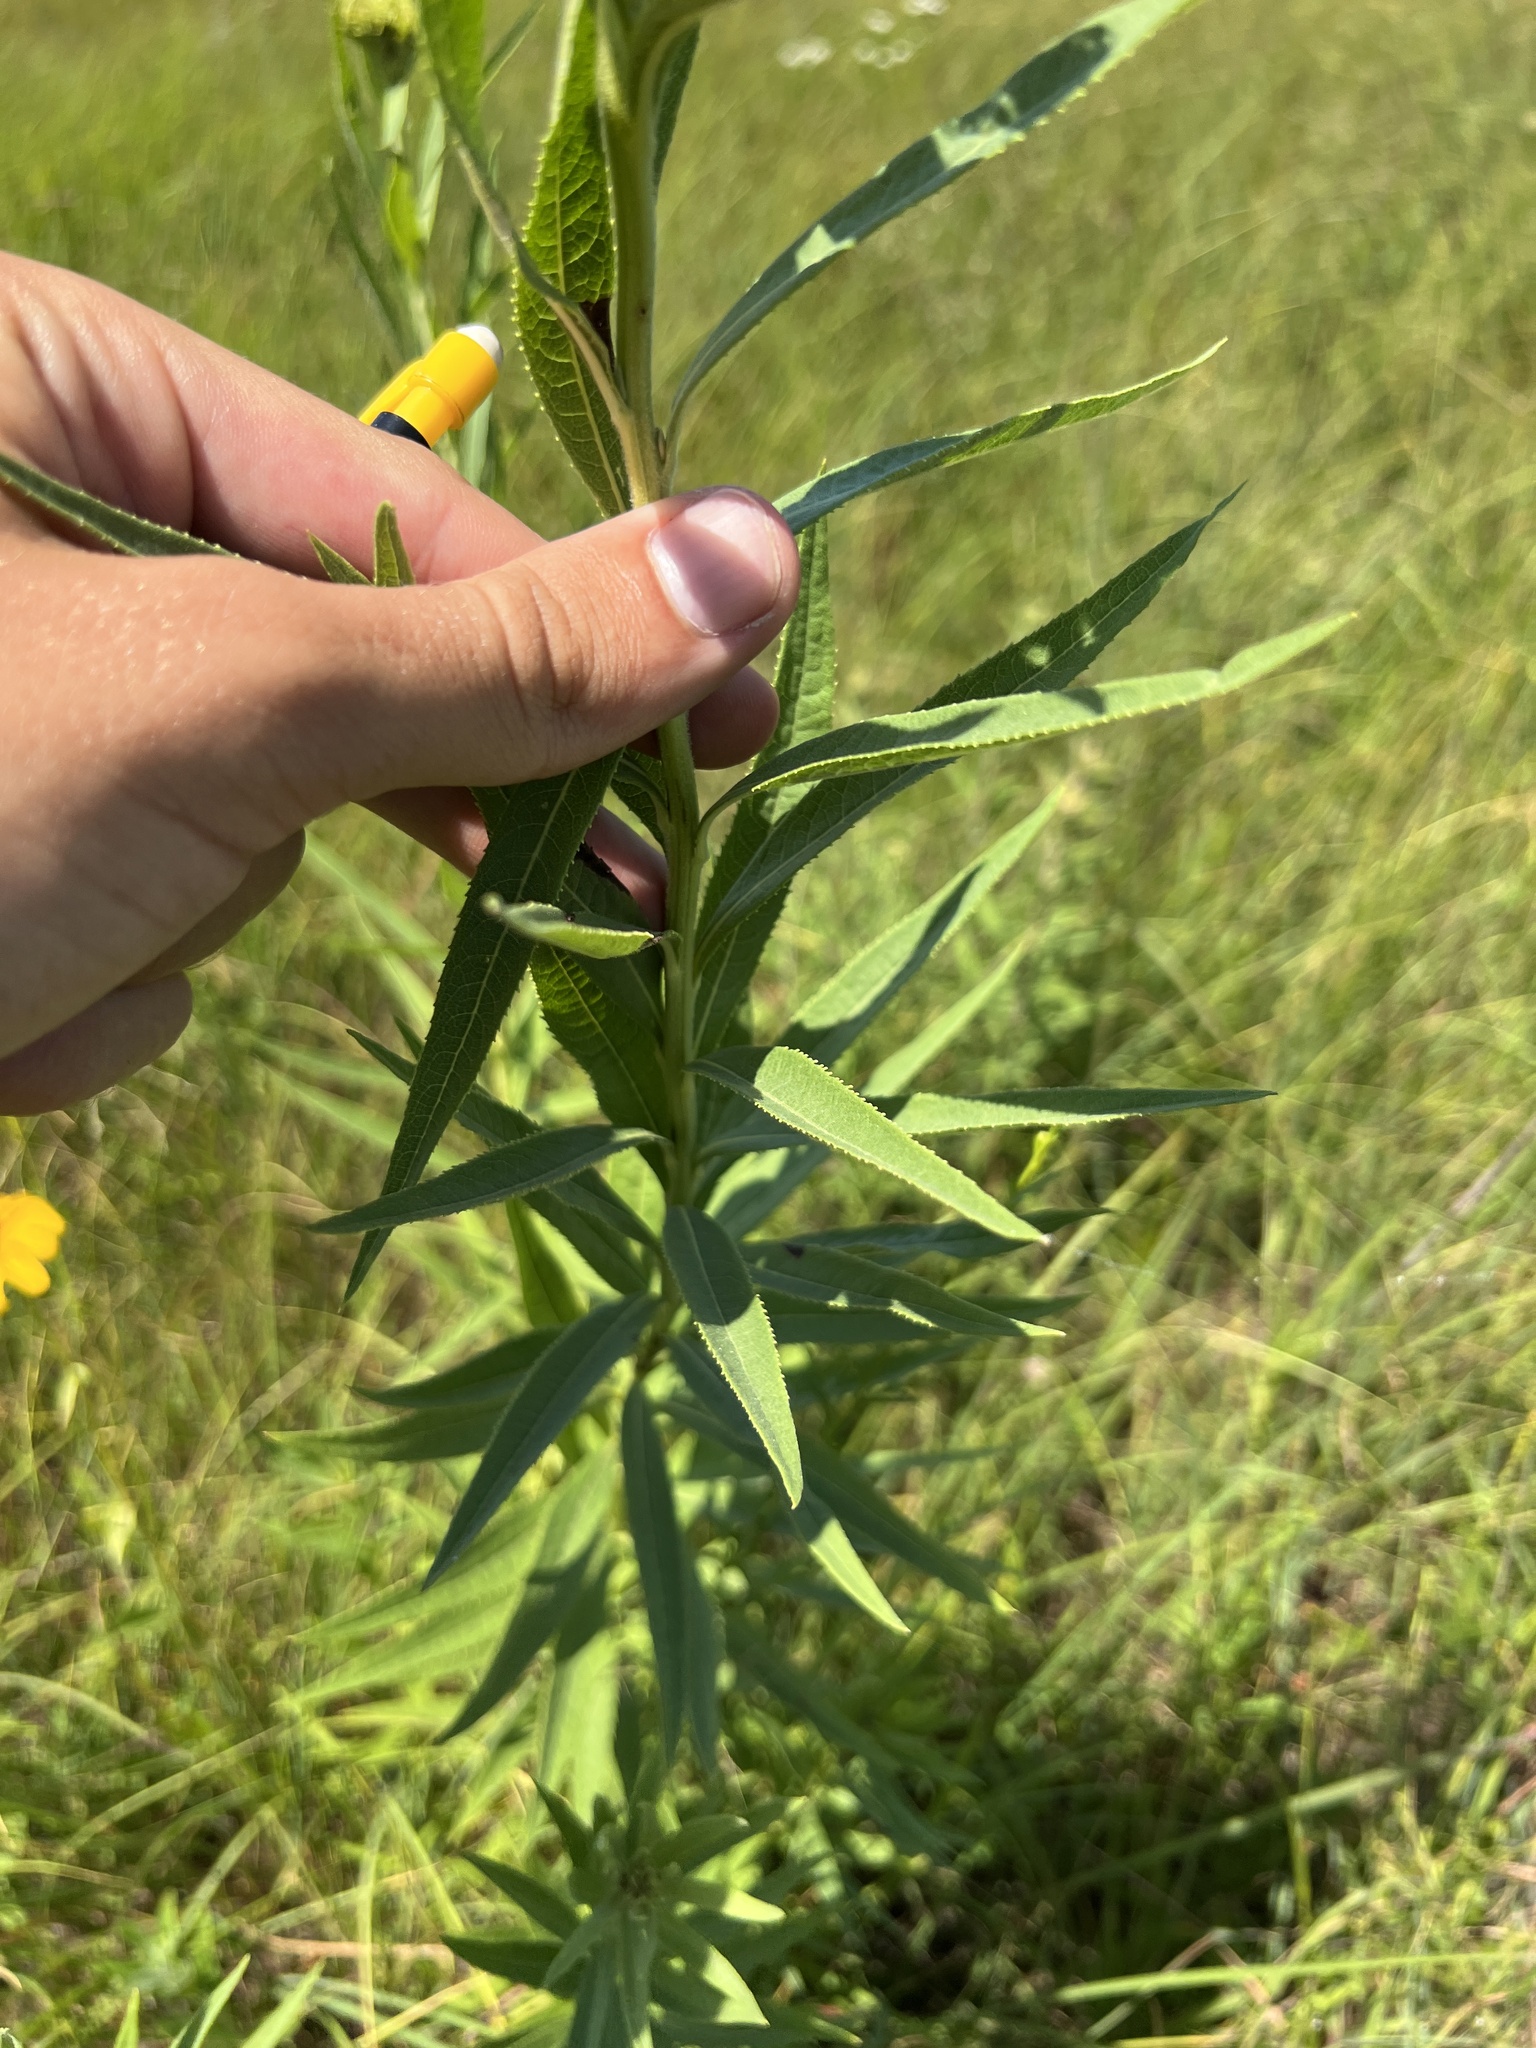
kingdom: Plantae
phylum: Tracheophyta
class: Magnoliopsida
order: Asterales
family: Asteraceae
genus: Vernonia
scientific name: Vernonia arkansana
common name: Ozark ironweed
